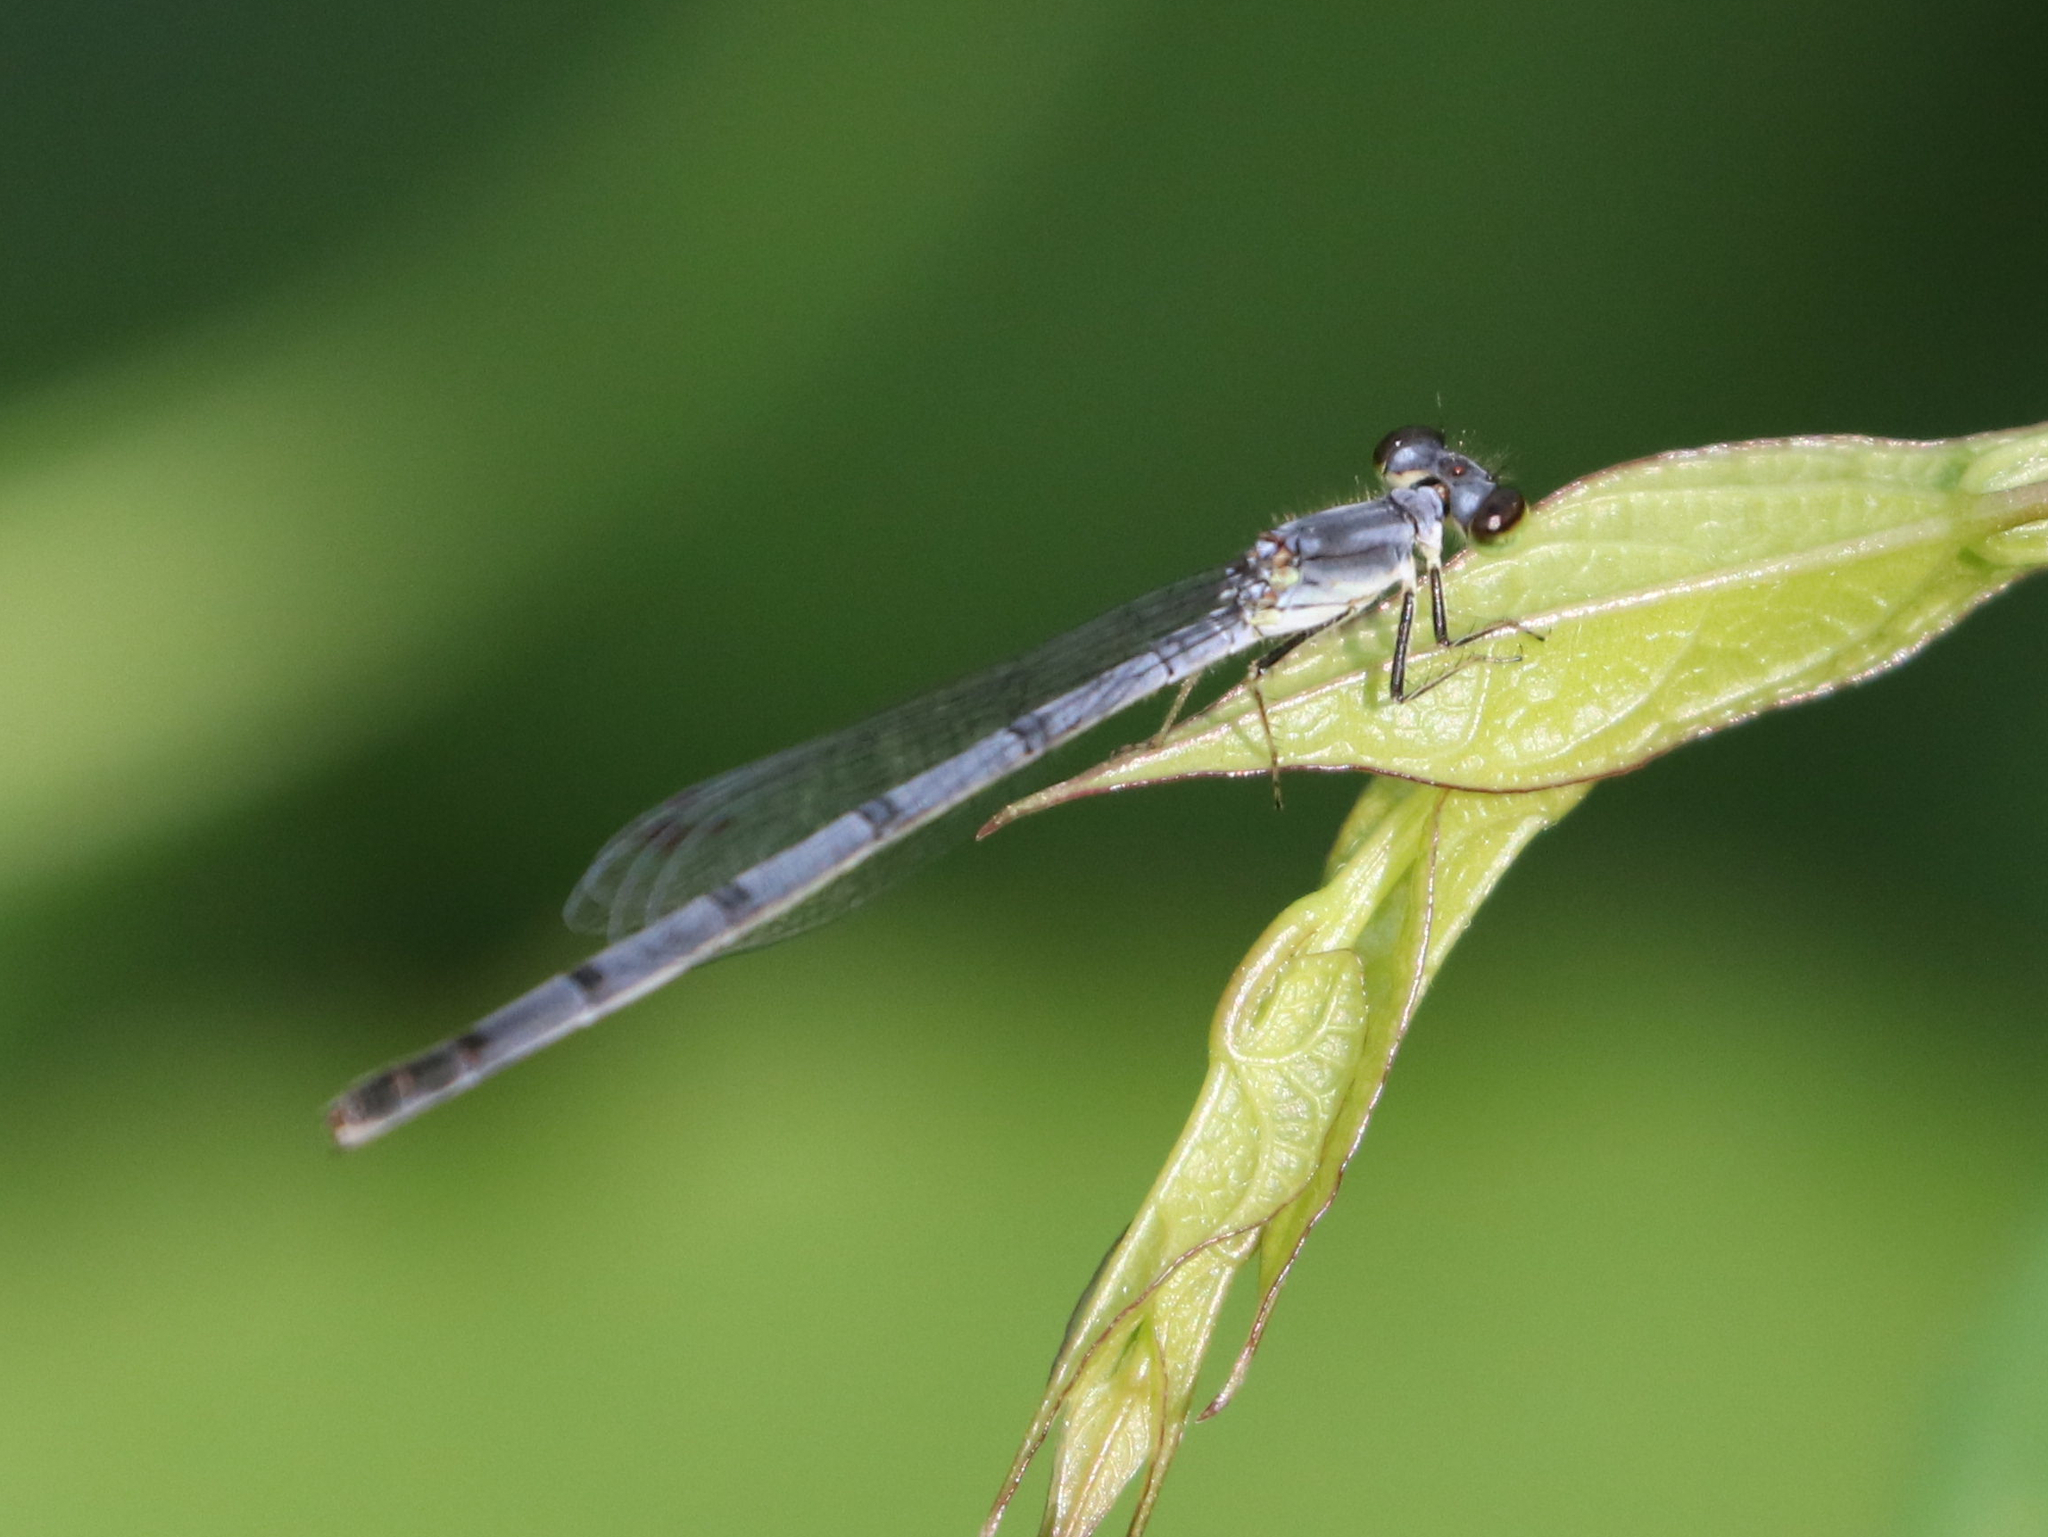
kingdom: Animalia
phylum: Arthropoda
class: Insecta
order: Odonata
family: Coenagrionidae
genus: Ischnura
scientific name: Ischnura posita
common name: Fragile forktail
